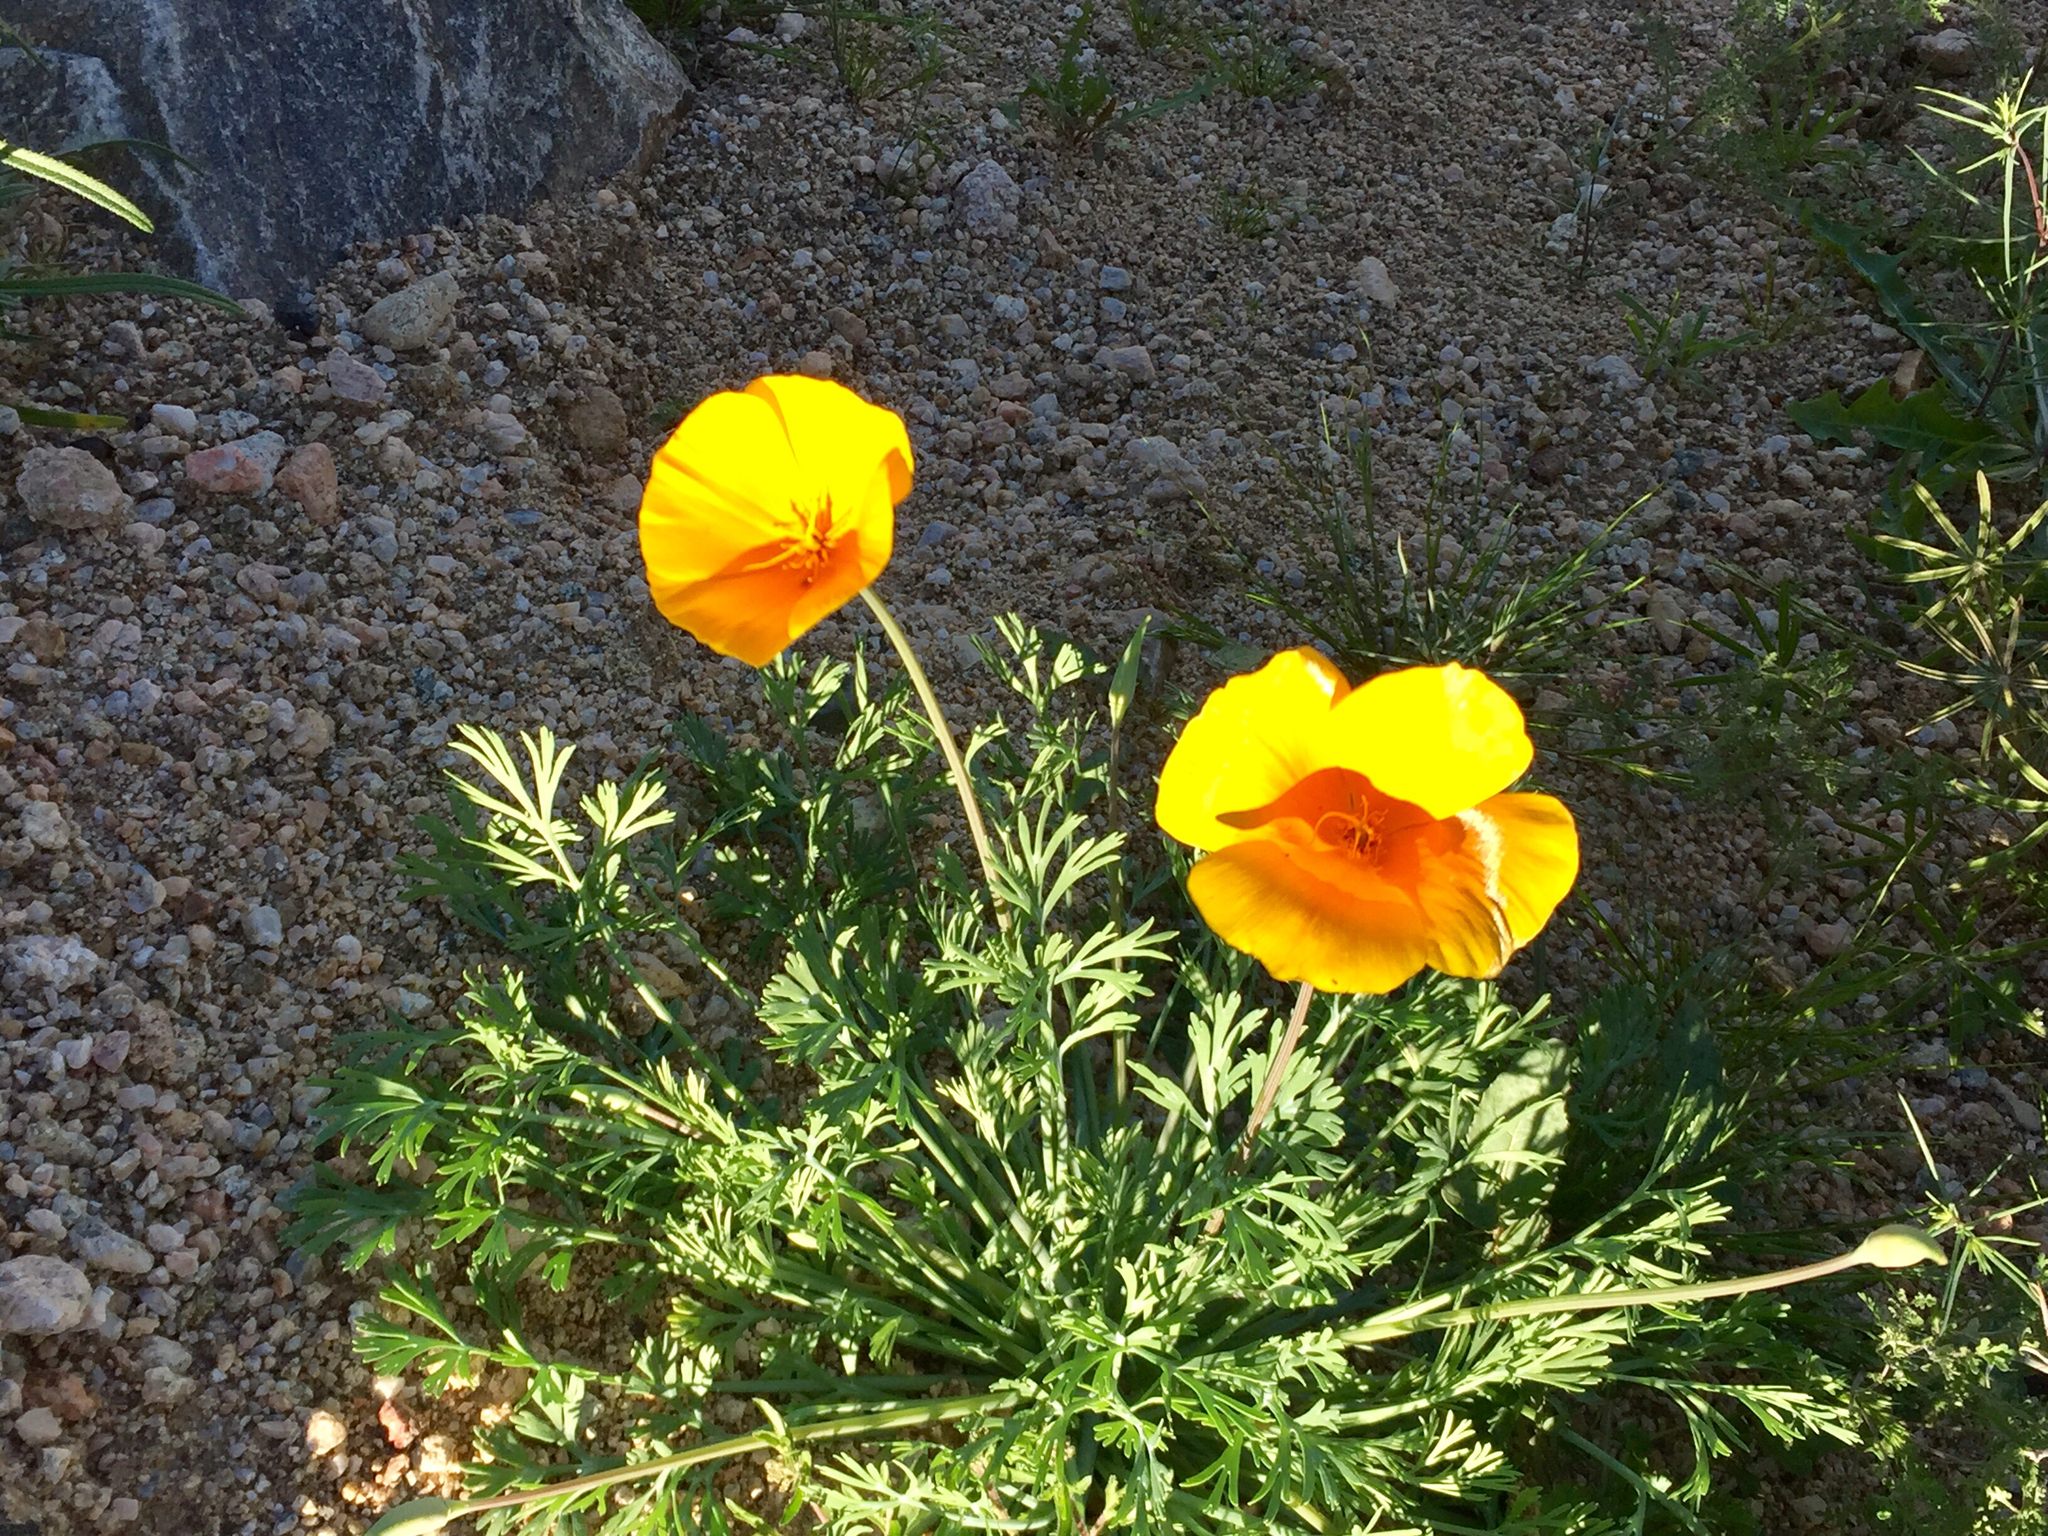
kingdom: Plantae
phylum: Tracheophyta
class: Magnoliopsida
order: Ranunculales
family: Papaveraceae
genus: Eschscholzia
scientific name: Eschscholzia californica
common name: California poppy
